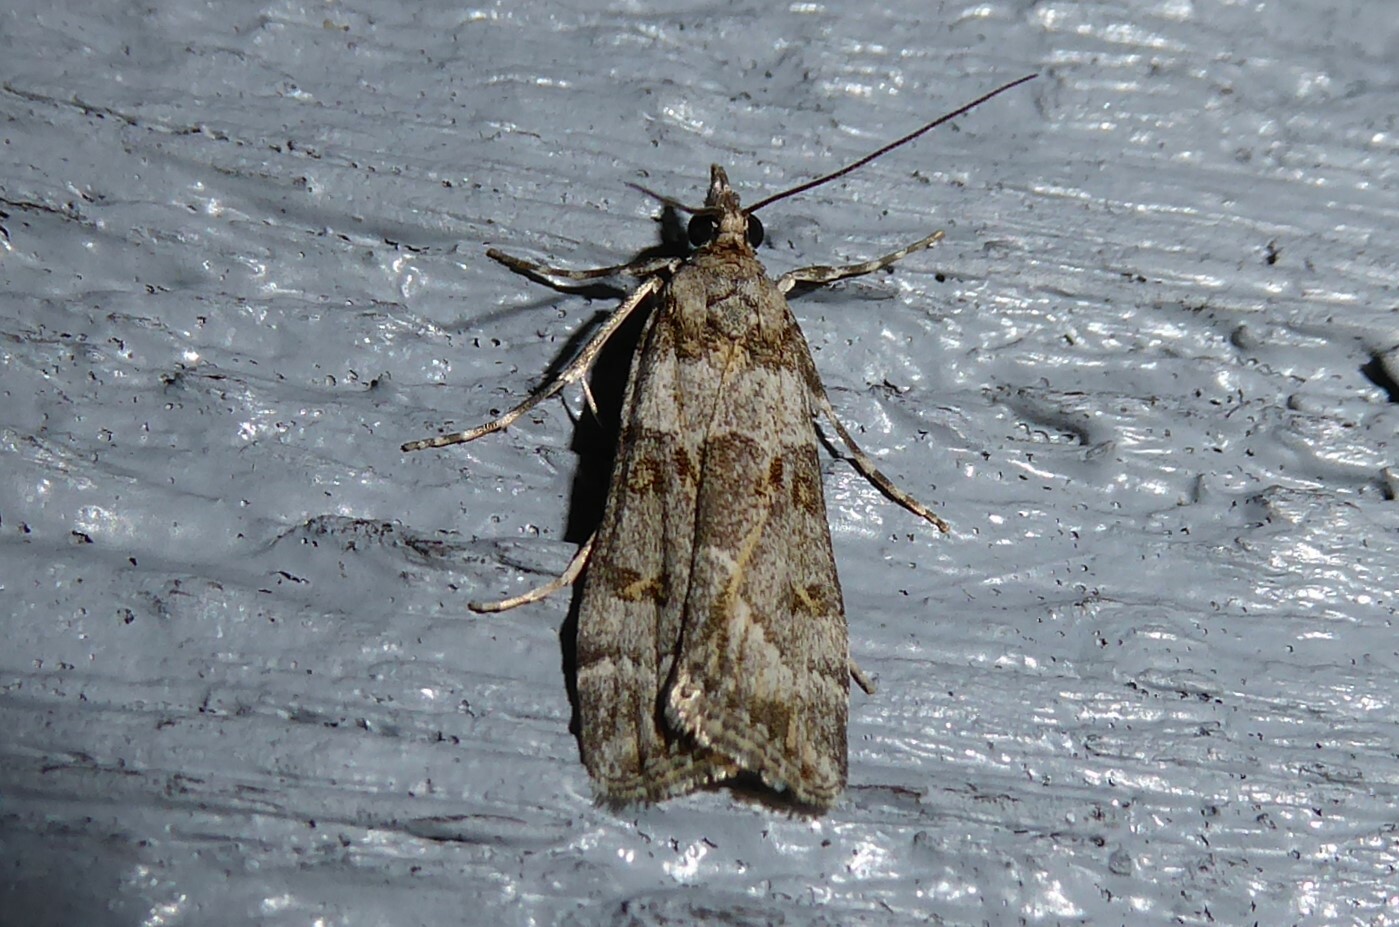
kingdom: Animalia
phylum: Arthropoda
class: Insecta
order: Lepidoptera
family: Crambidae
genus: Scoparia
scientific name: Scoparia tetracycla
